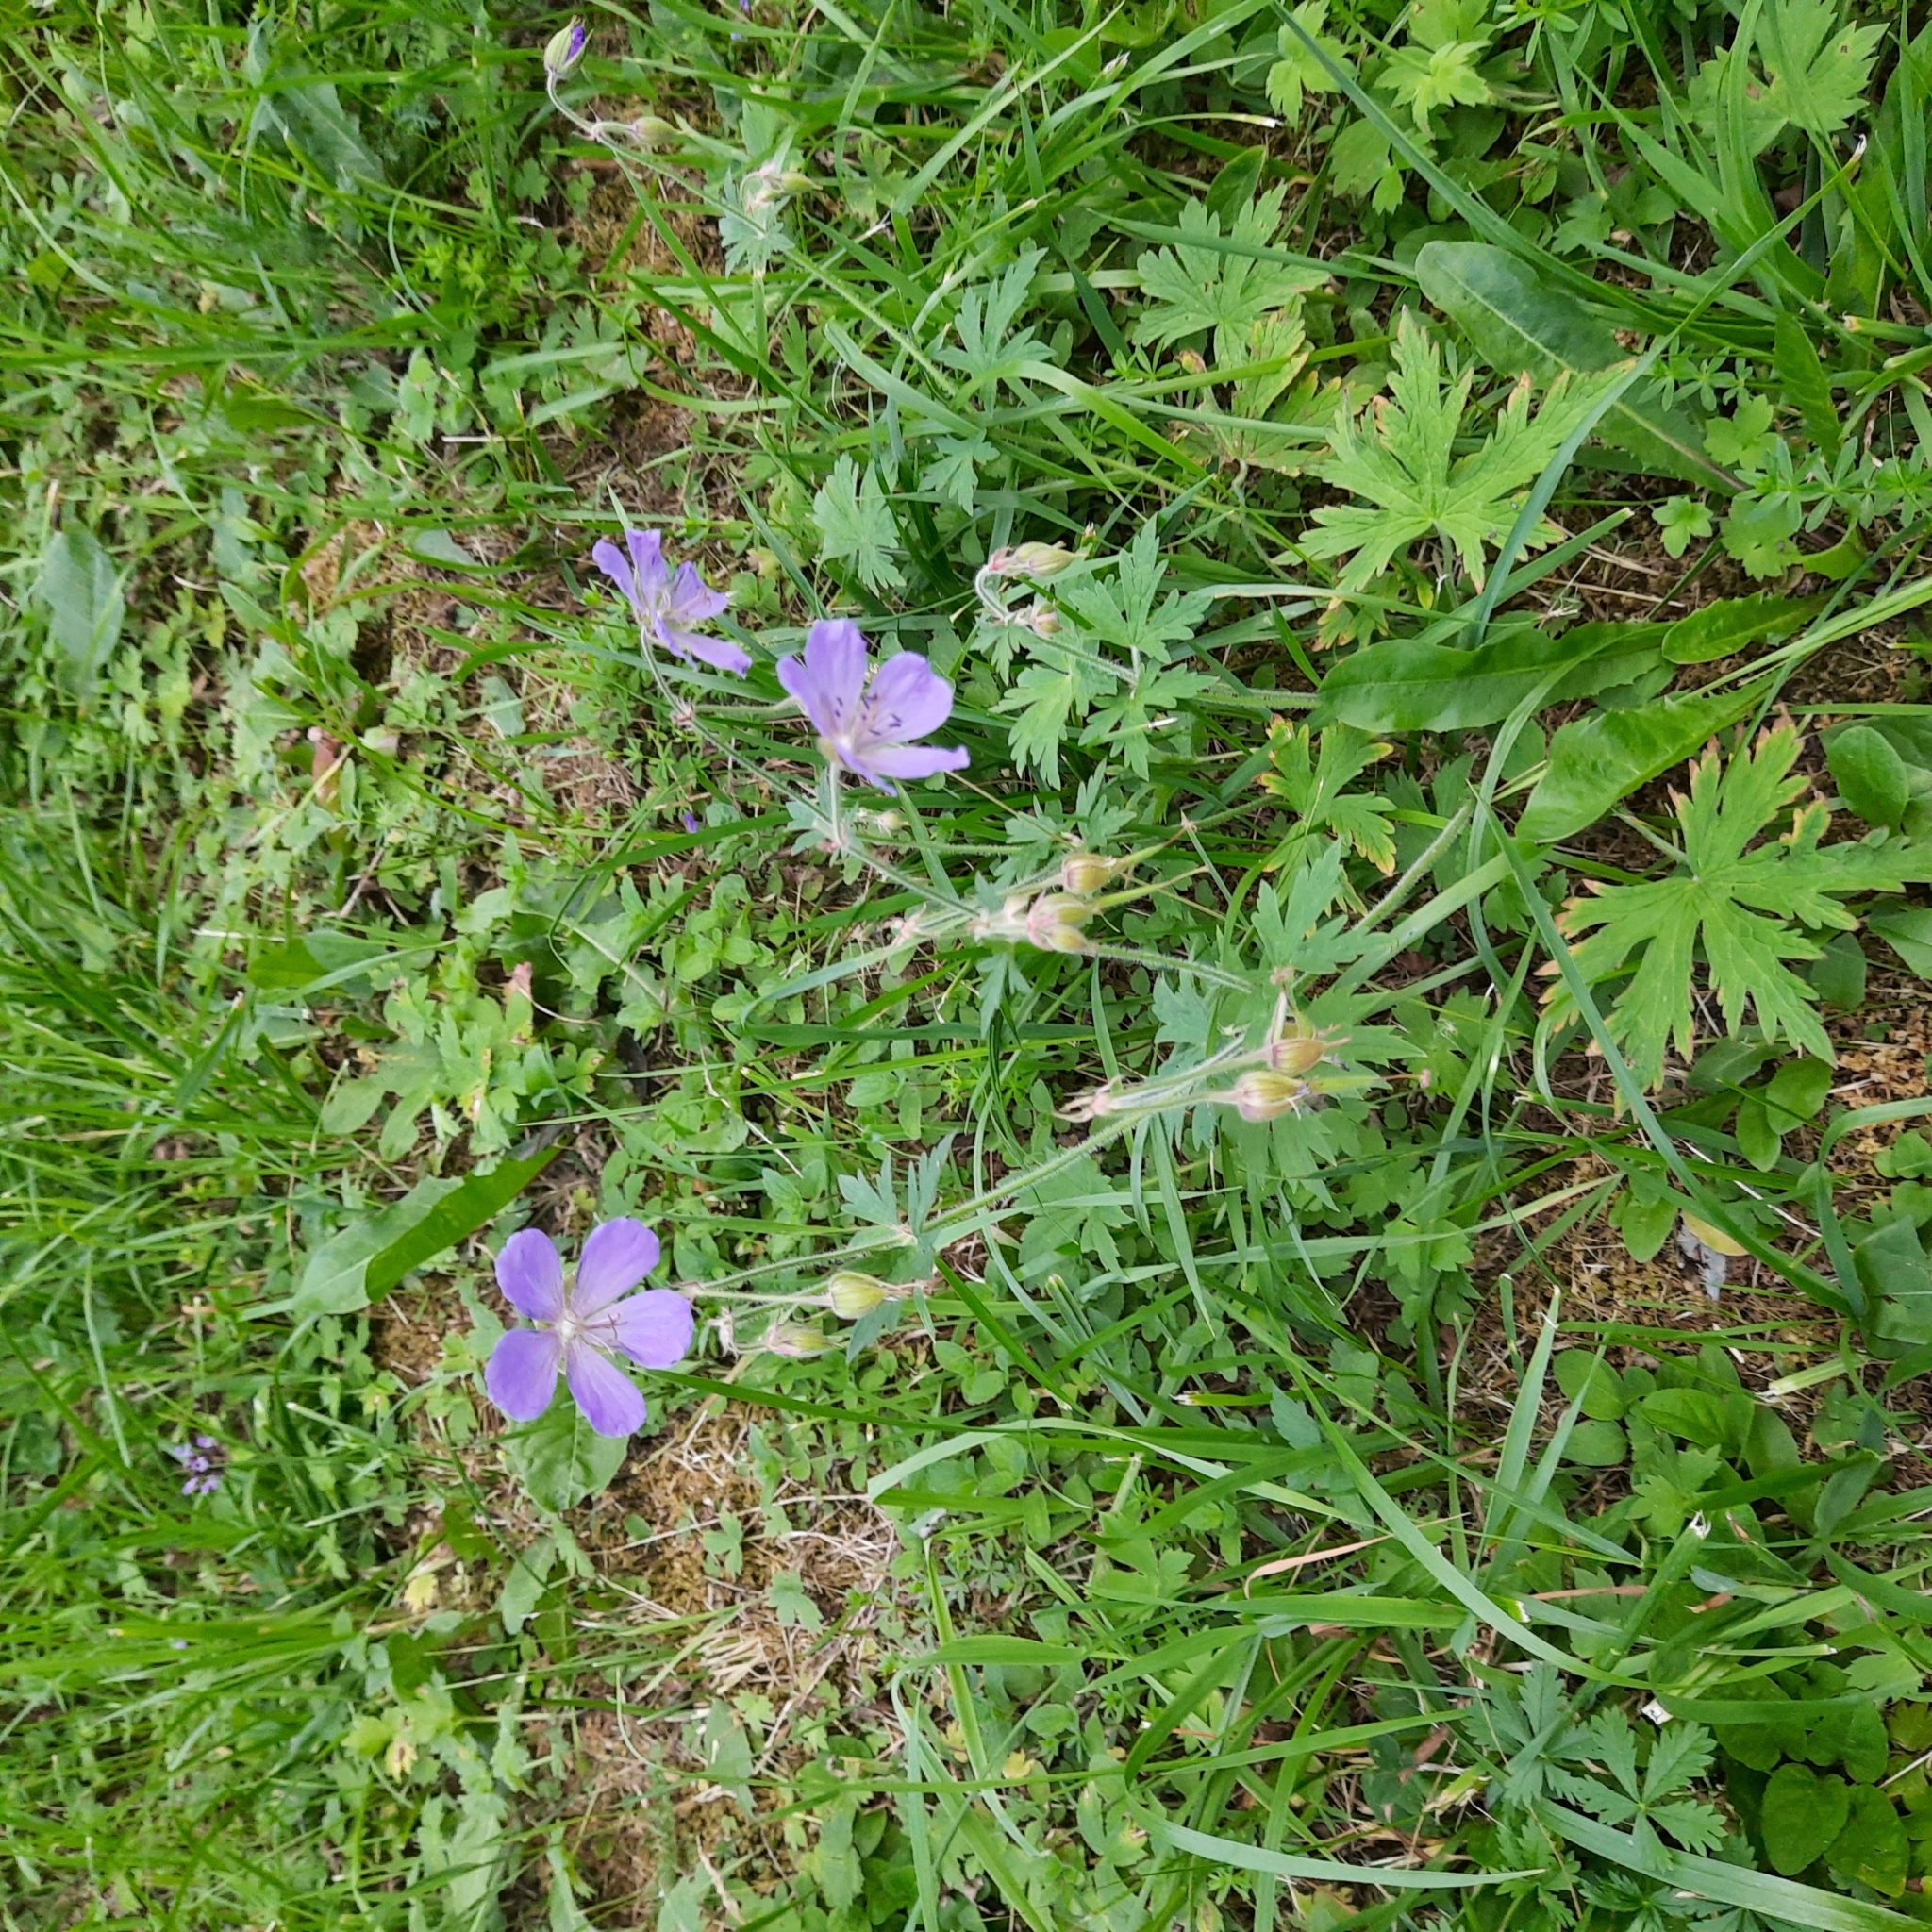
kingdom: Plantae
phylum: Tracheophyta
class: Magnoliopsida
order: Geraniales
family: Geraniaceae
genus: Geranium
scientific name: Geranium pratense
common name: Meadow crane's-bill
